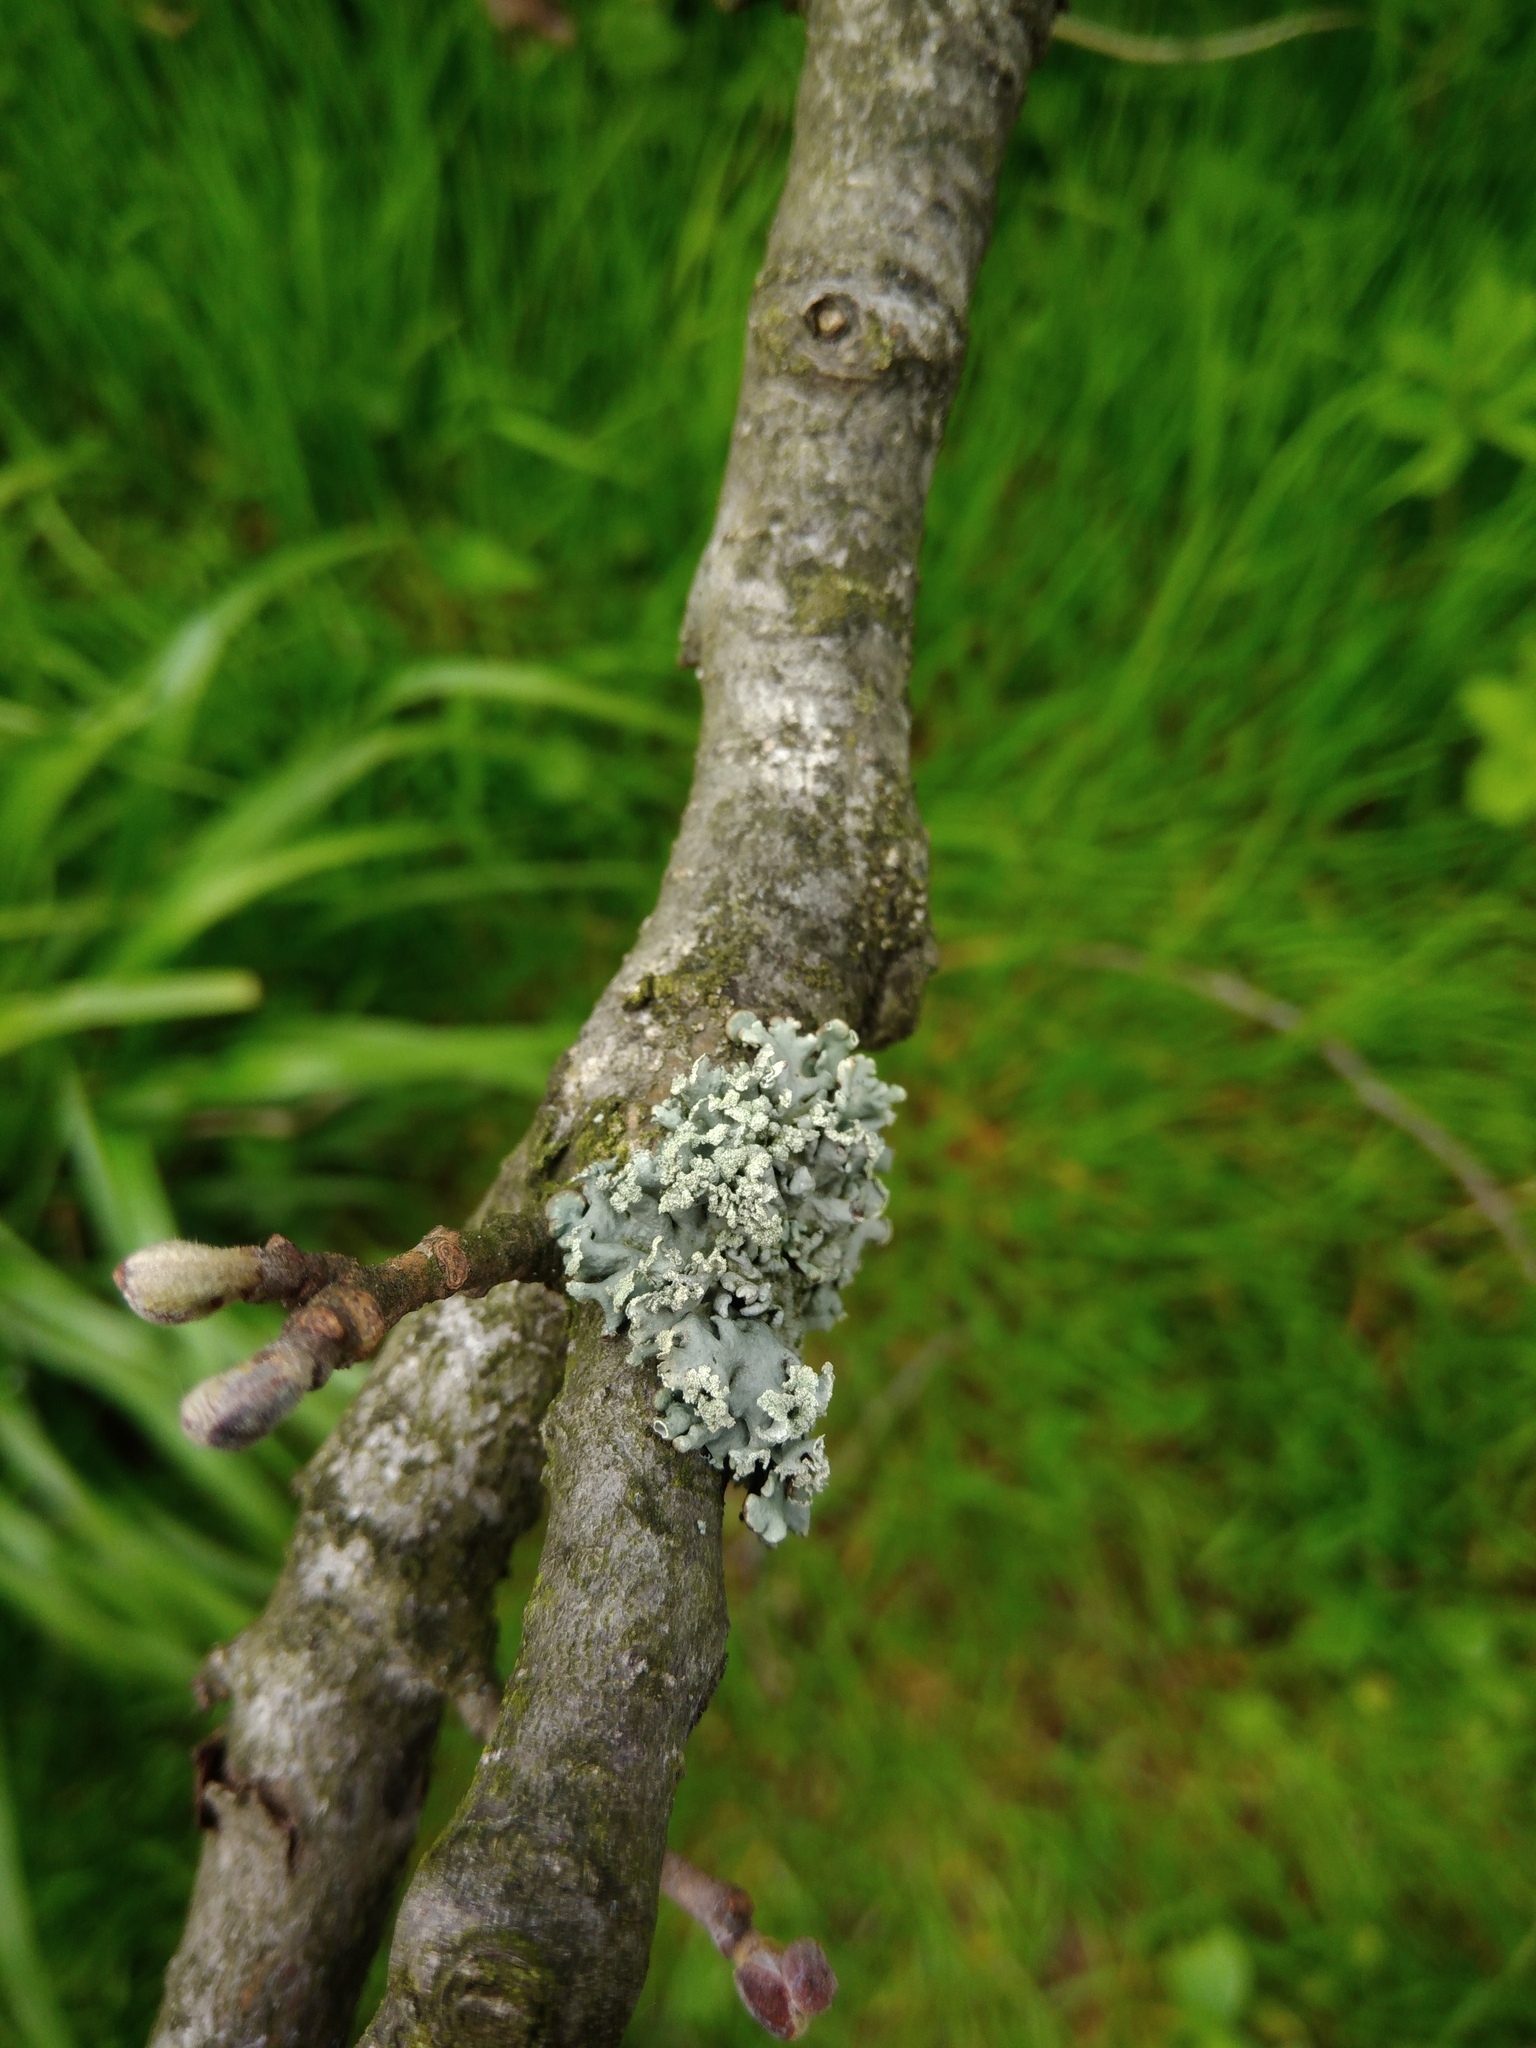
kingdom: Fungi
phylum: Ascomycota
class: Lecanoromycetes
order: Lecanorales
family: Parmeliaceae
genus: Hypogymnia
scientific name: Hypogymnia physodes
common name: Dark crottle
